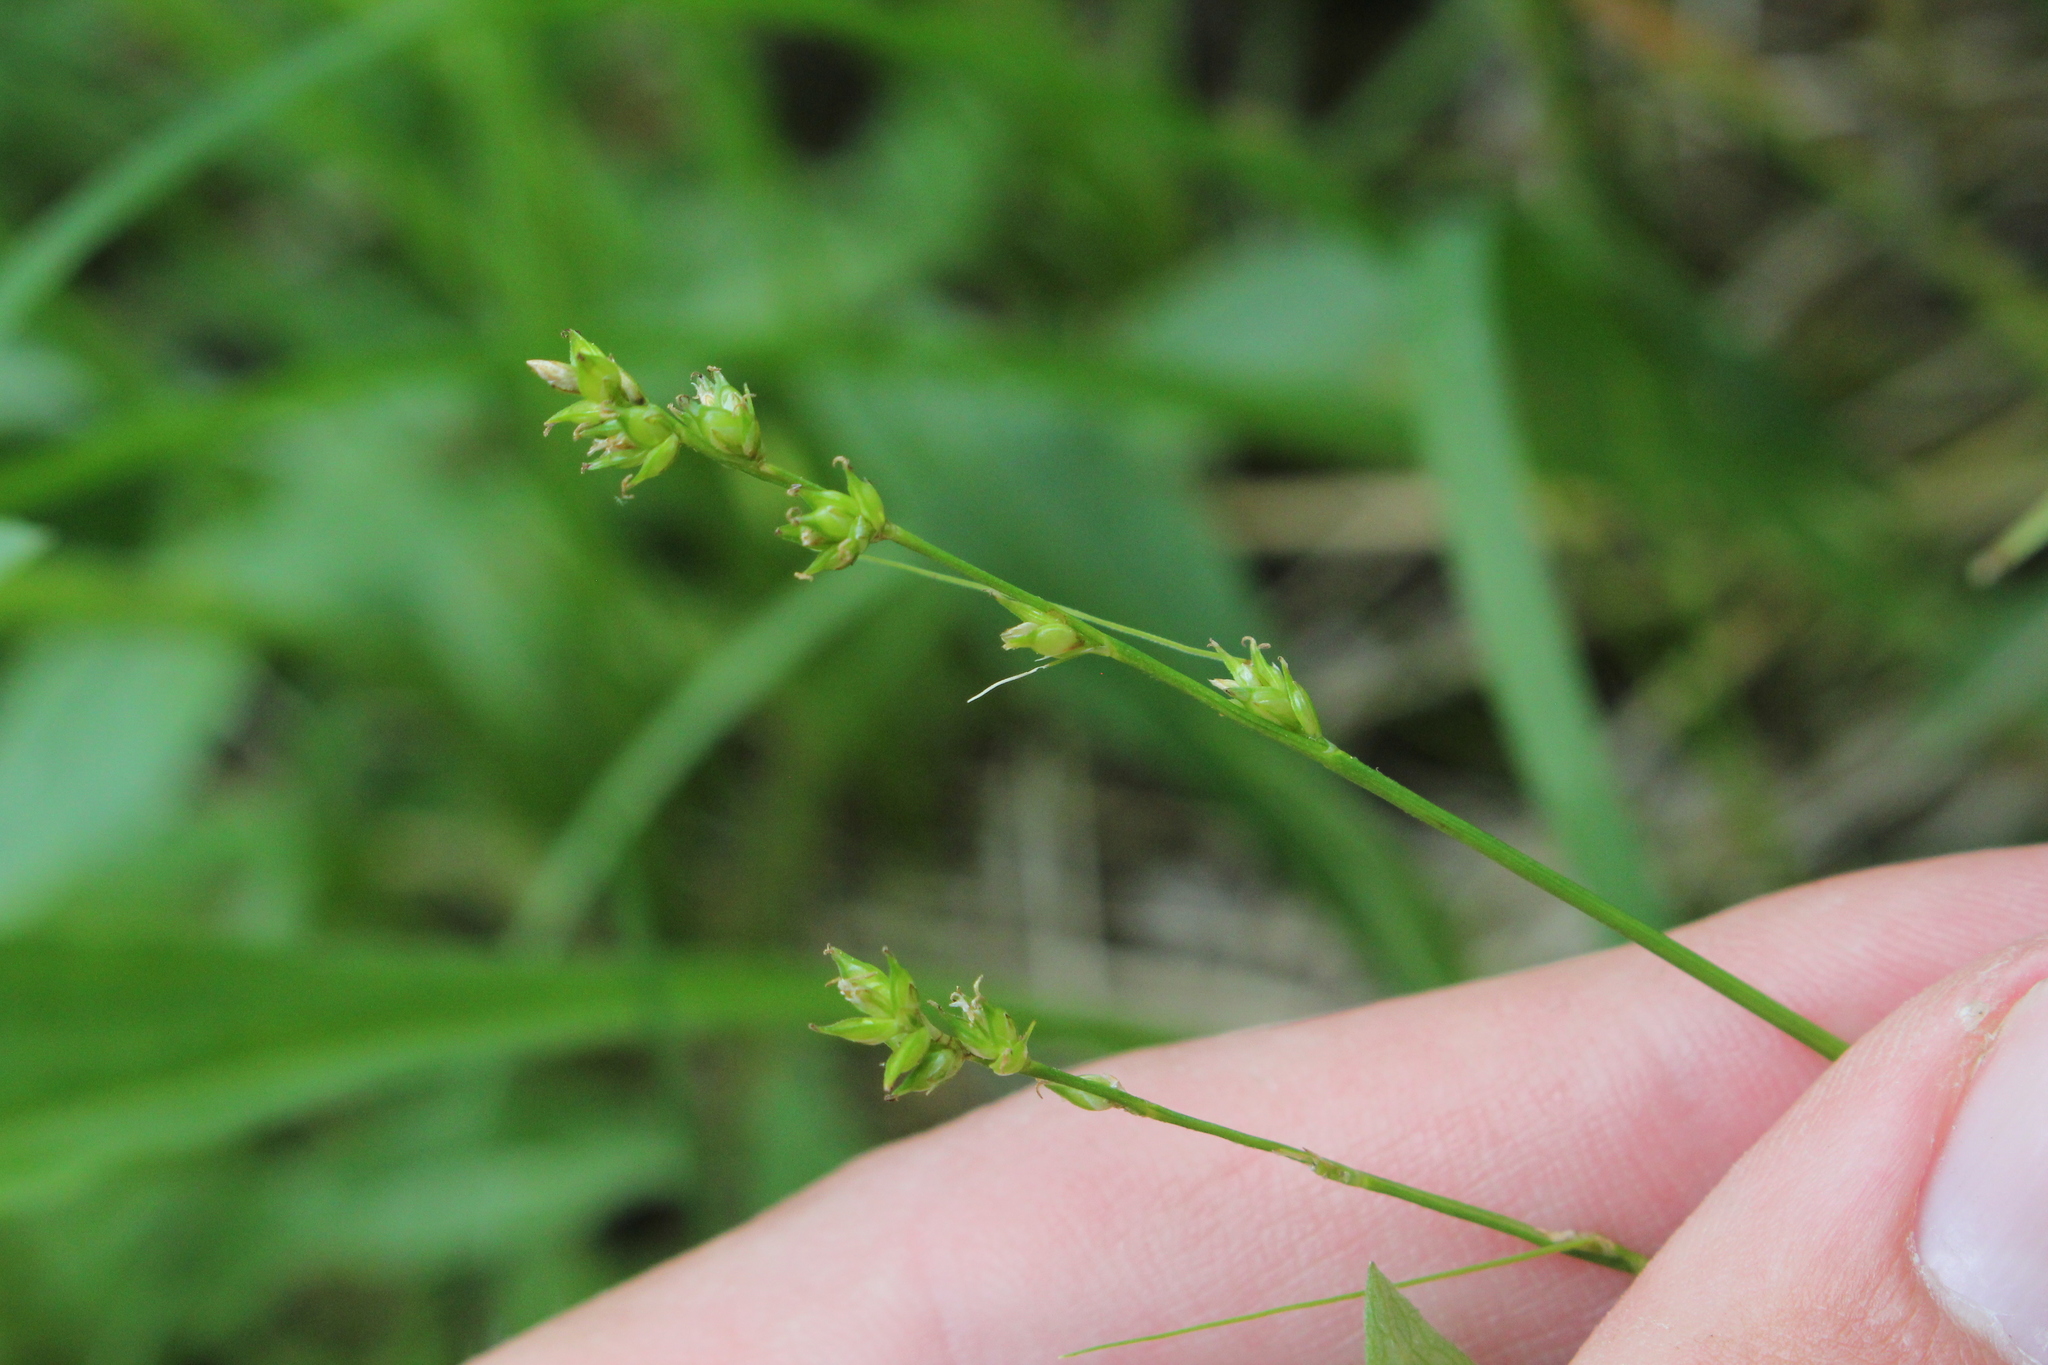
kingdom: Plantae
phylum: Tracheophyta
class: Liliopsida
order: Poales
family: Cyperaceae
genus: Carex
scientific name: Carex rosea
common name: Curly-styled wood sedge
